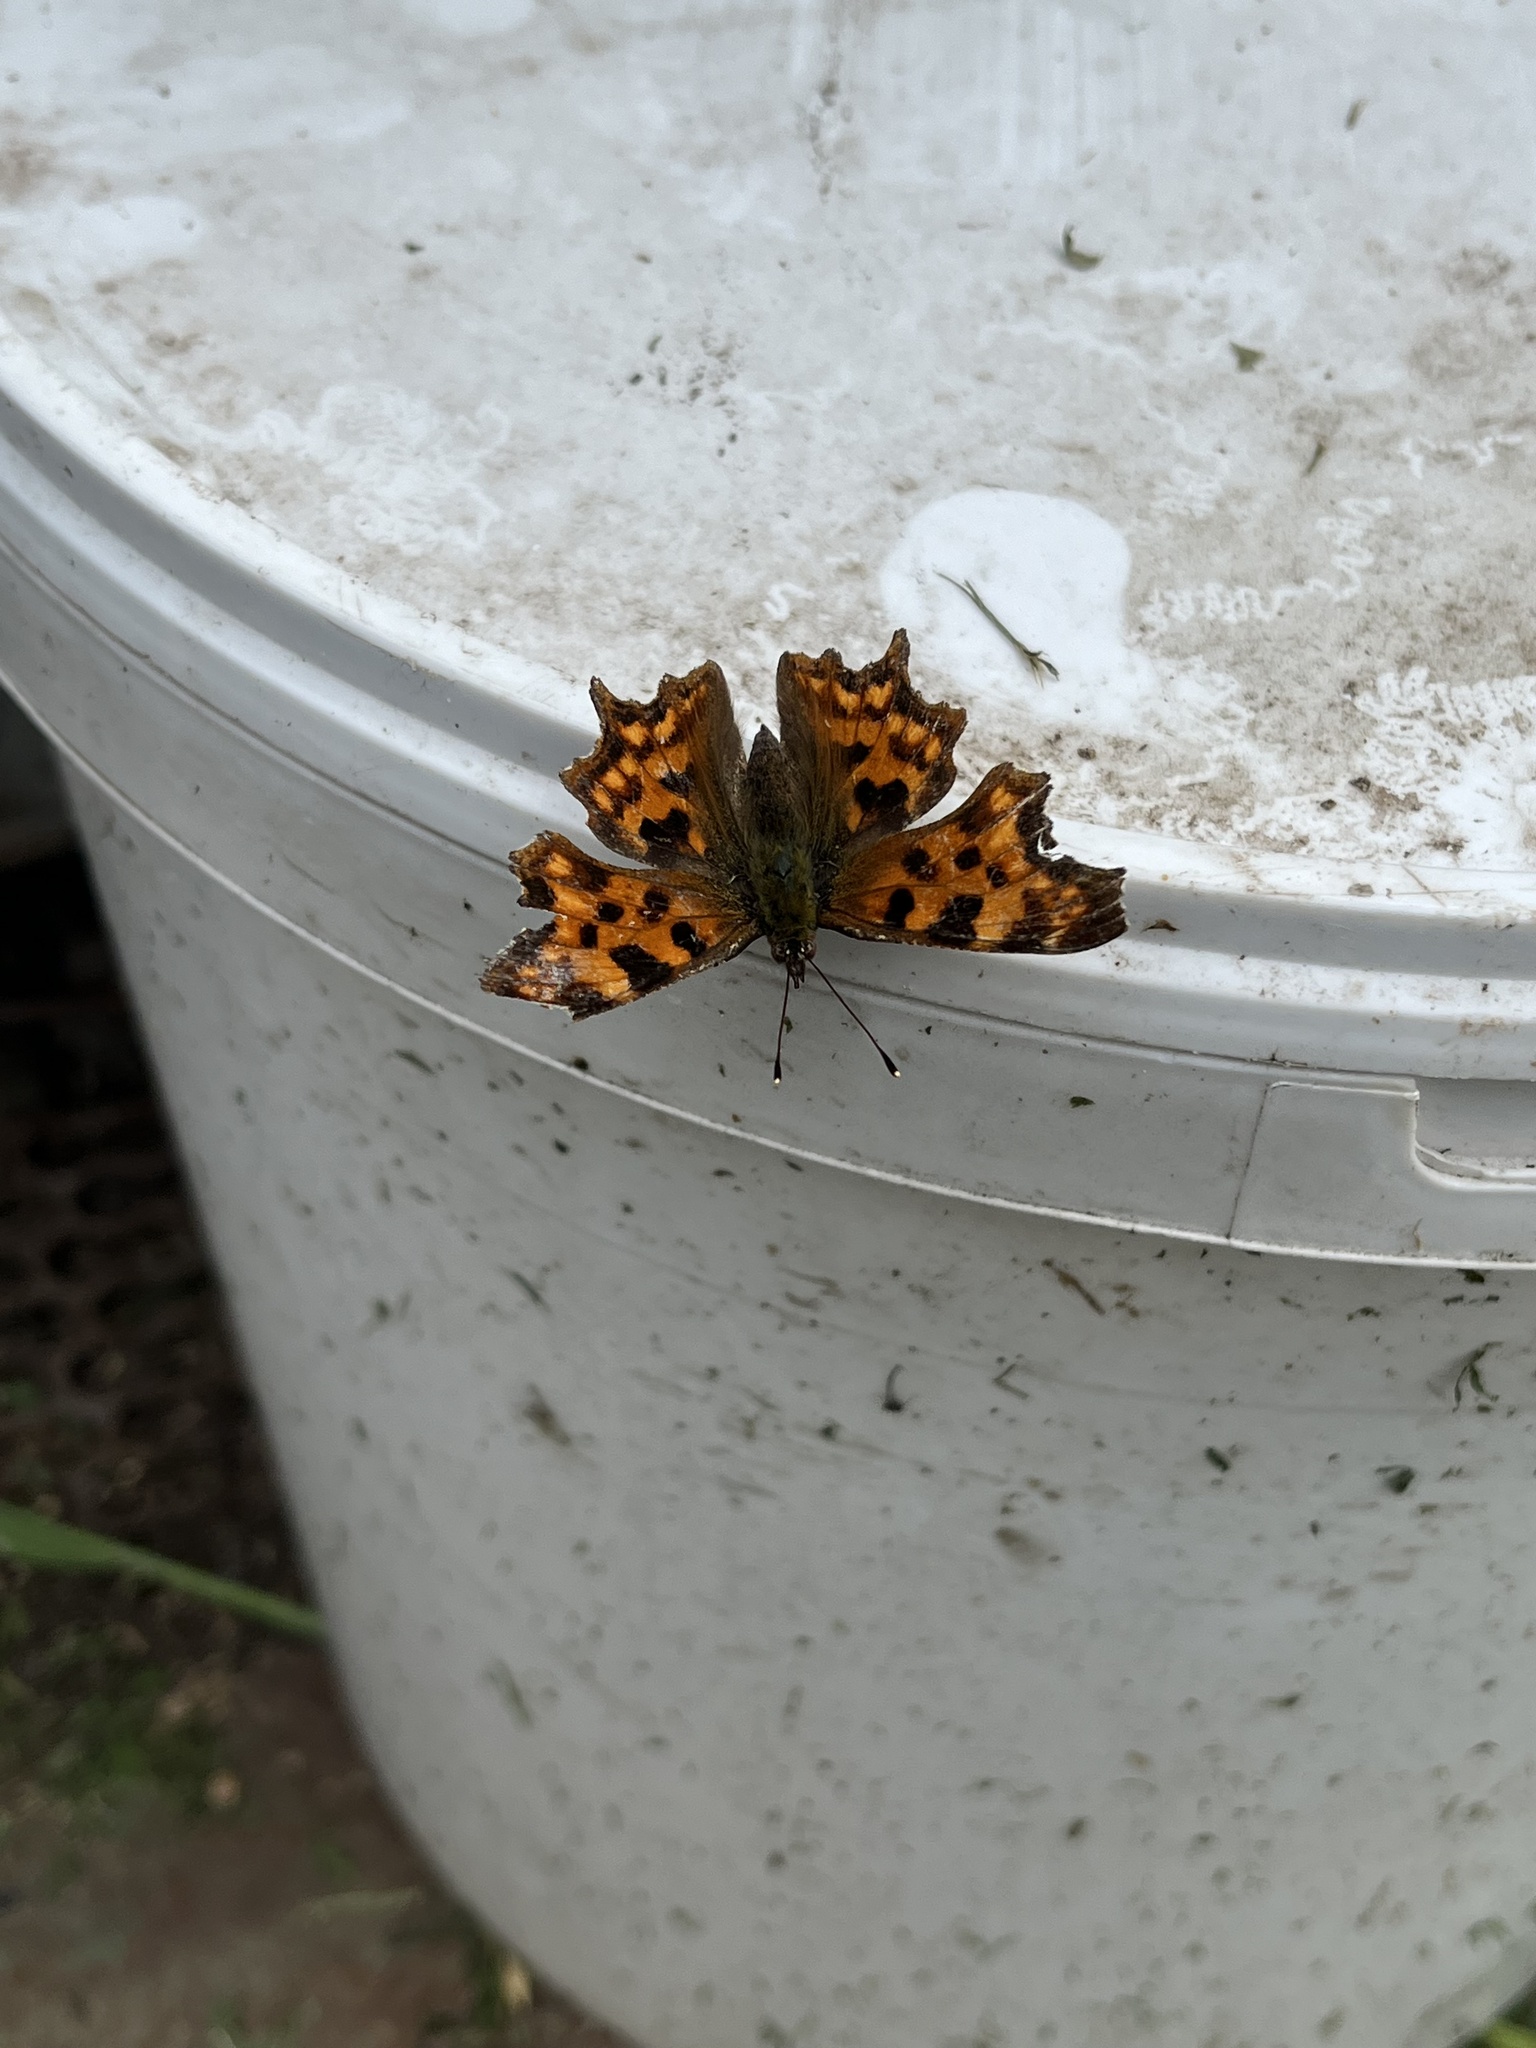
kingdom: Animalia
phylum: Arthropoda
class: Insecta
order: Lepidoptera
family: Nymphalidae
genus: Polygonia
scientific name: Polygonia c-album
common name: Comma
